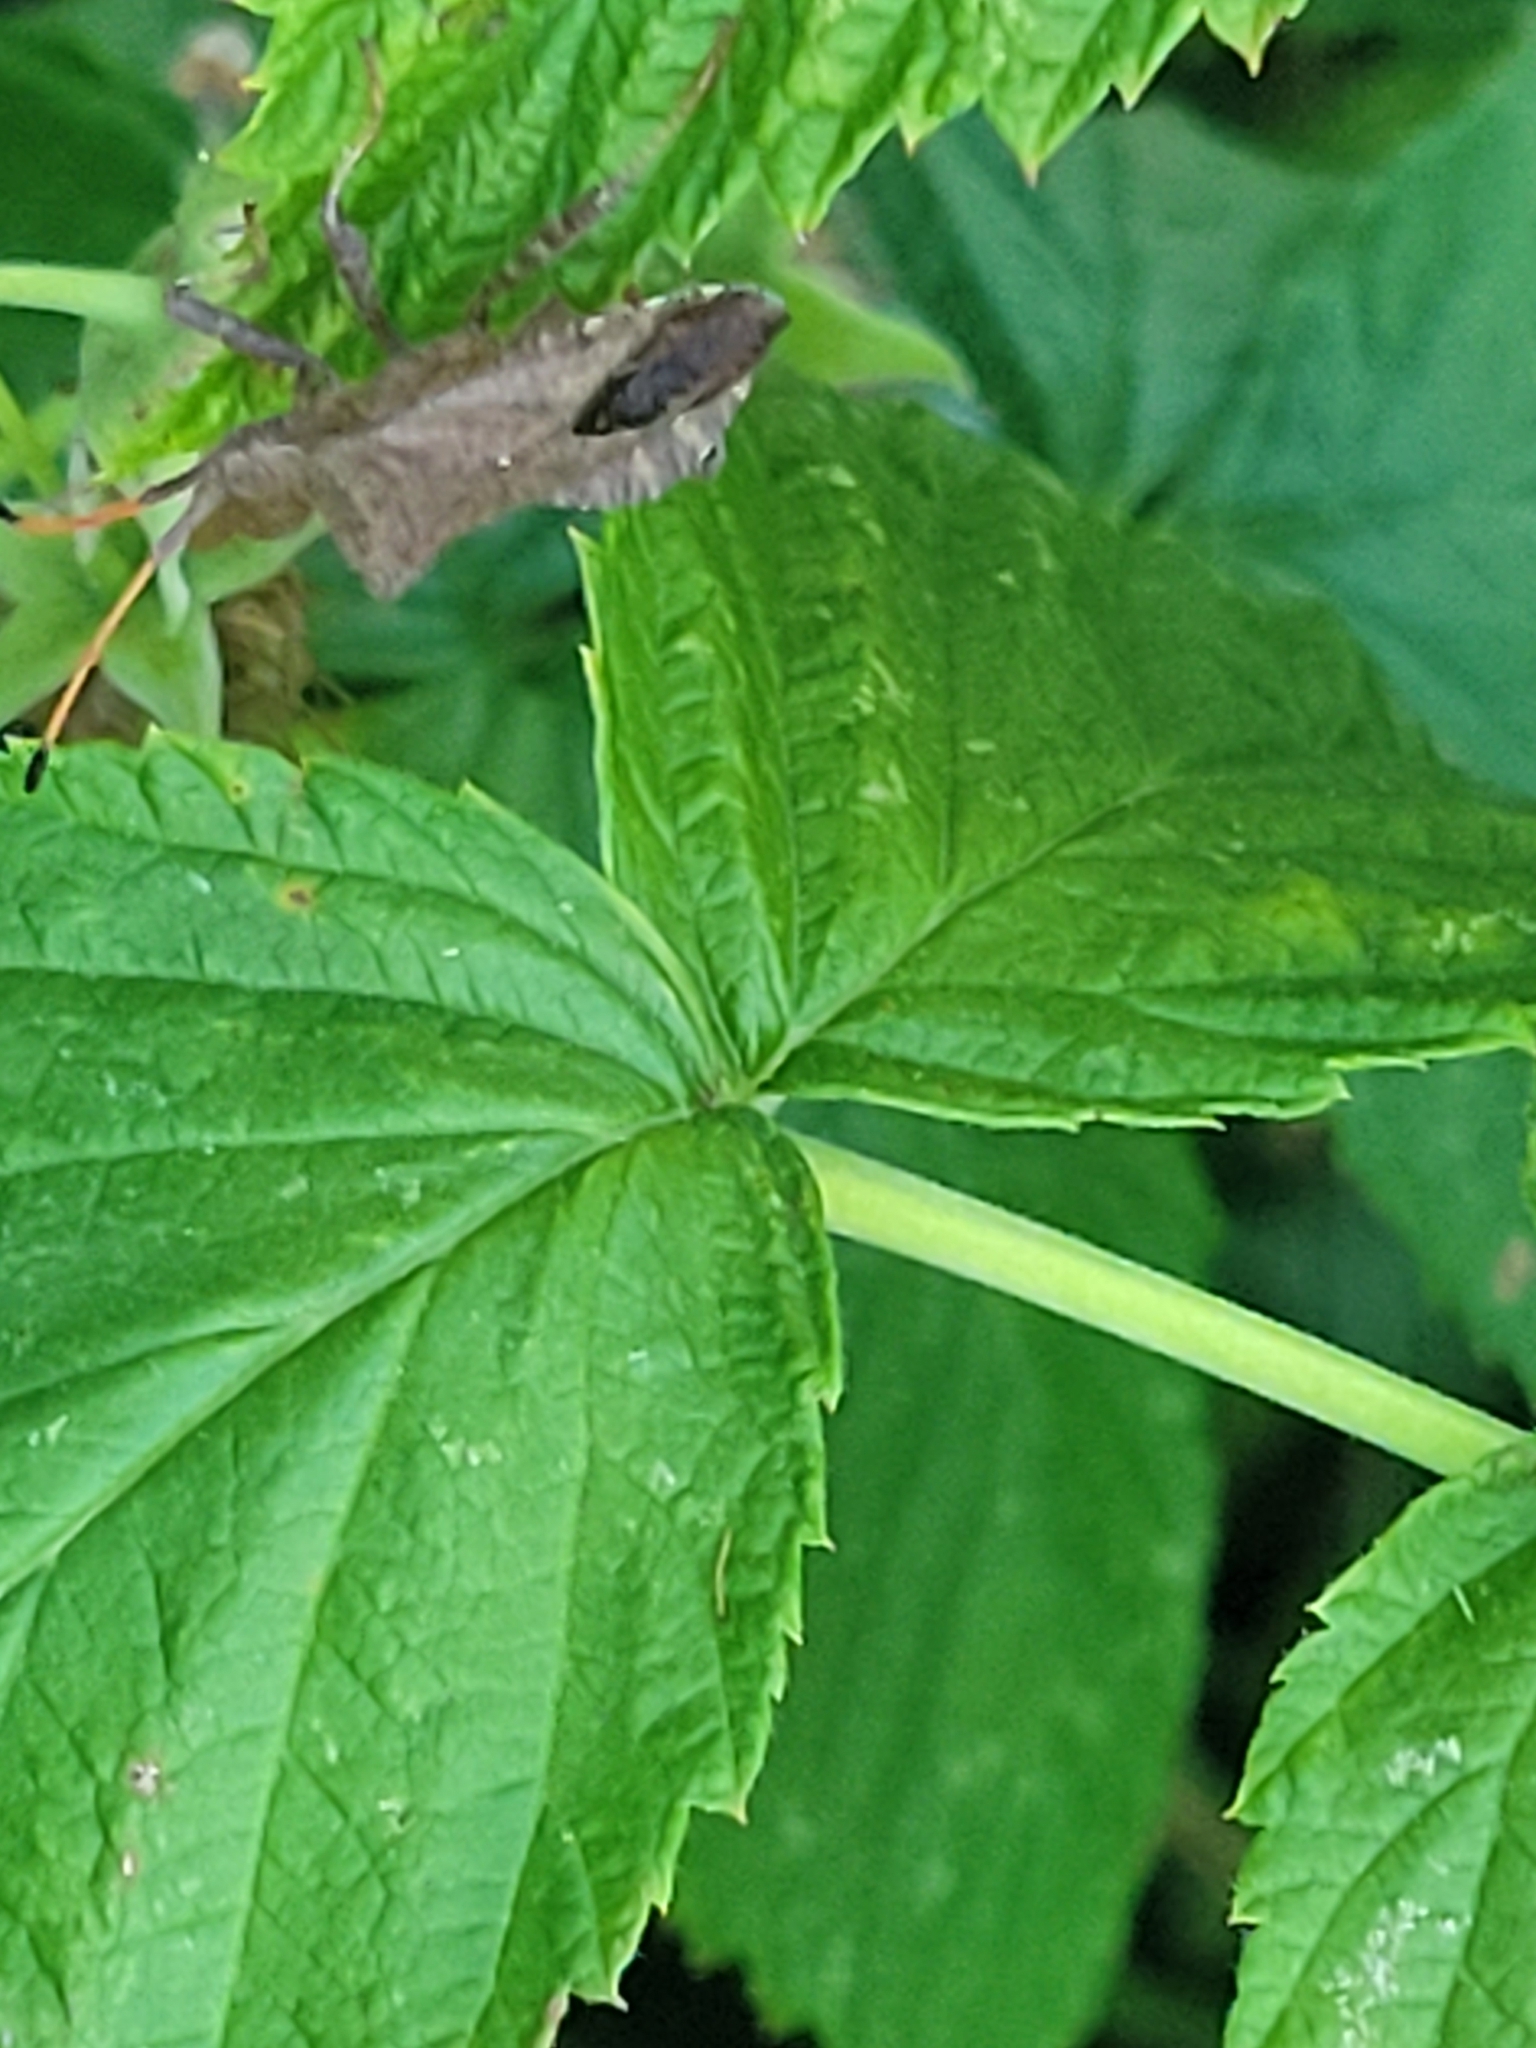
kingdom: Animalia
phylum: Arthropoda
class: Insecta
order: Hemiptera
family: Coreidae
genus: Coreus
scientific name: Coreus marginatus
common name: Dock bug
